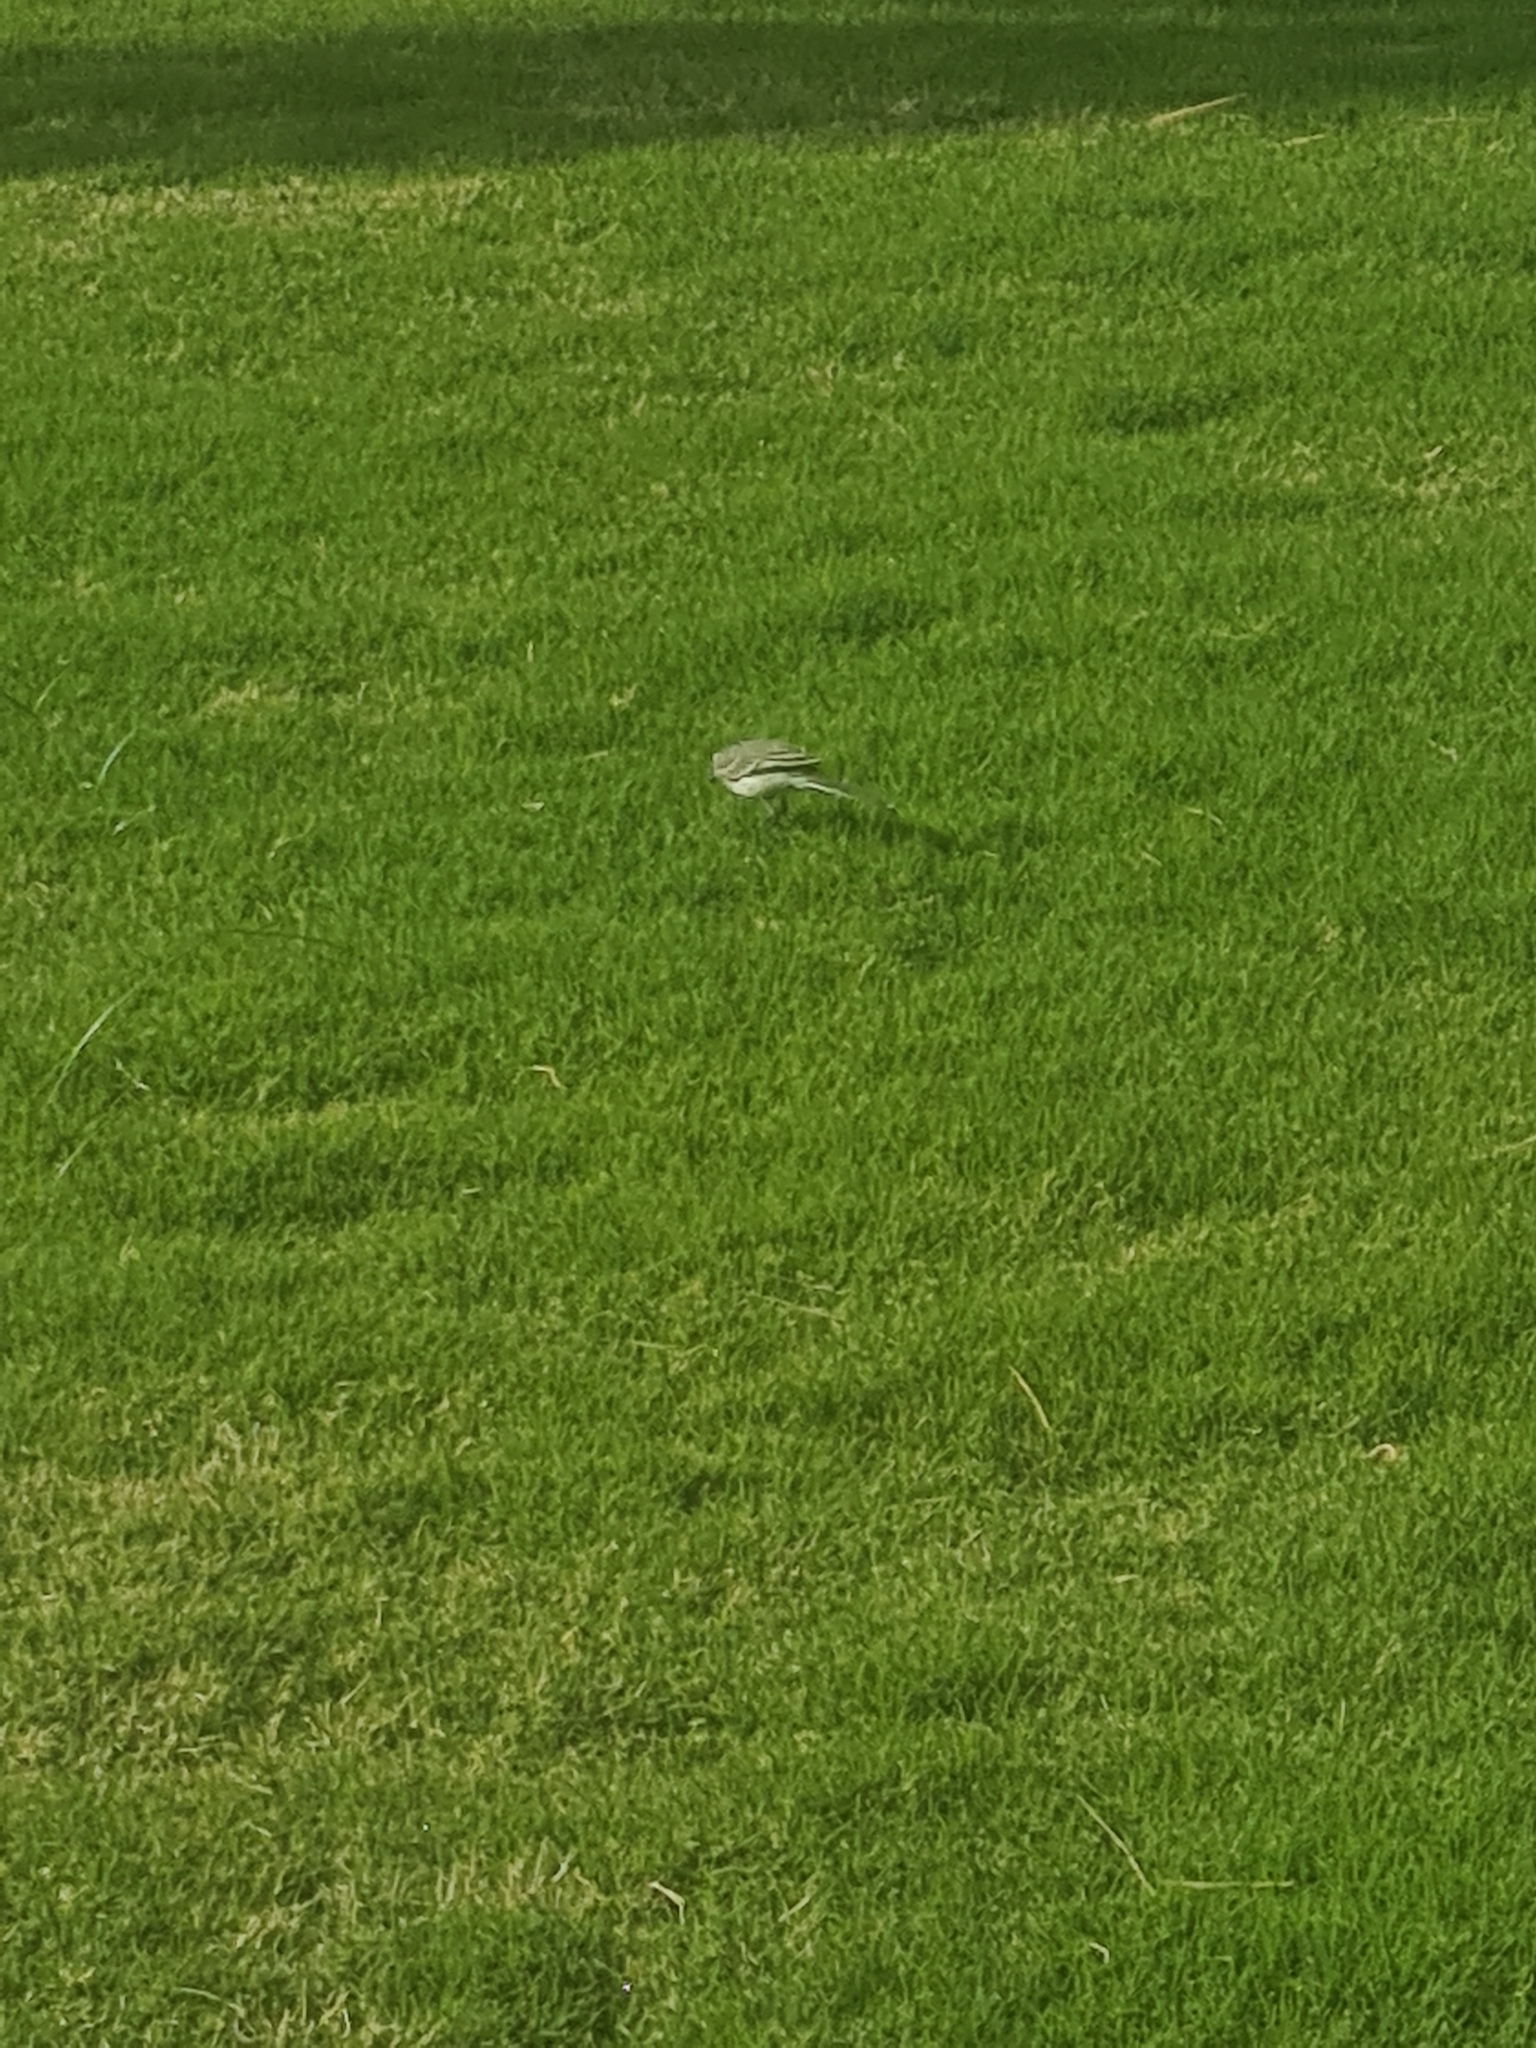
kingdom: Animalia
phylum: Chordata
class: Aves
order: Passeriformes
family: Motacillidae
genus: Motacilla
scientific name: Motacilla alba
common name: White wagtail
